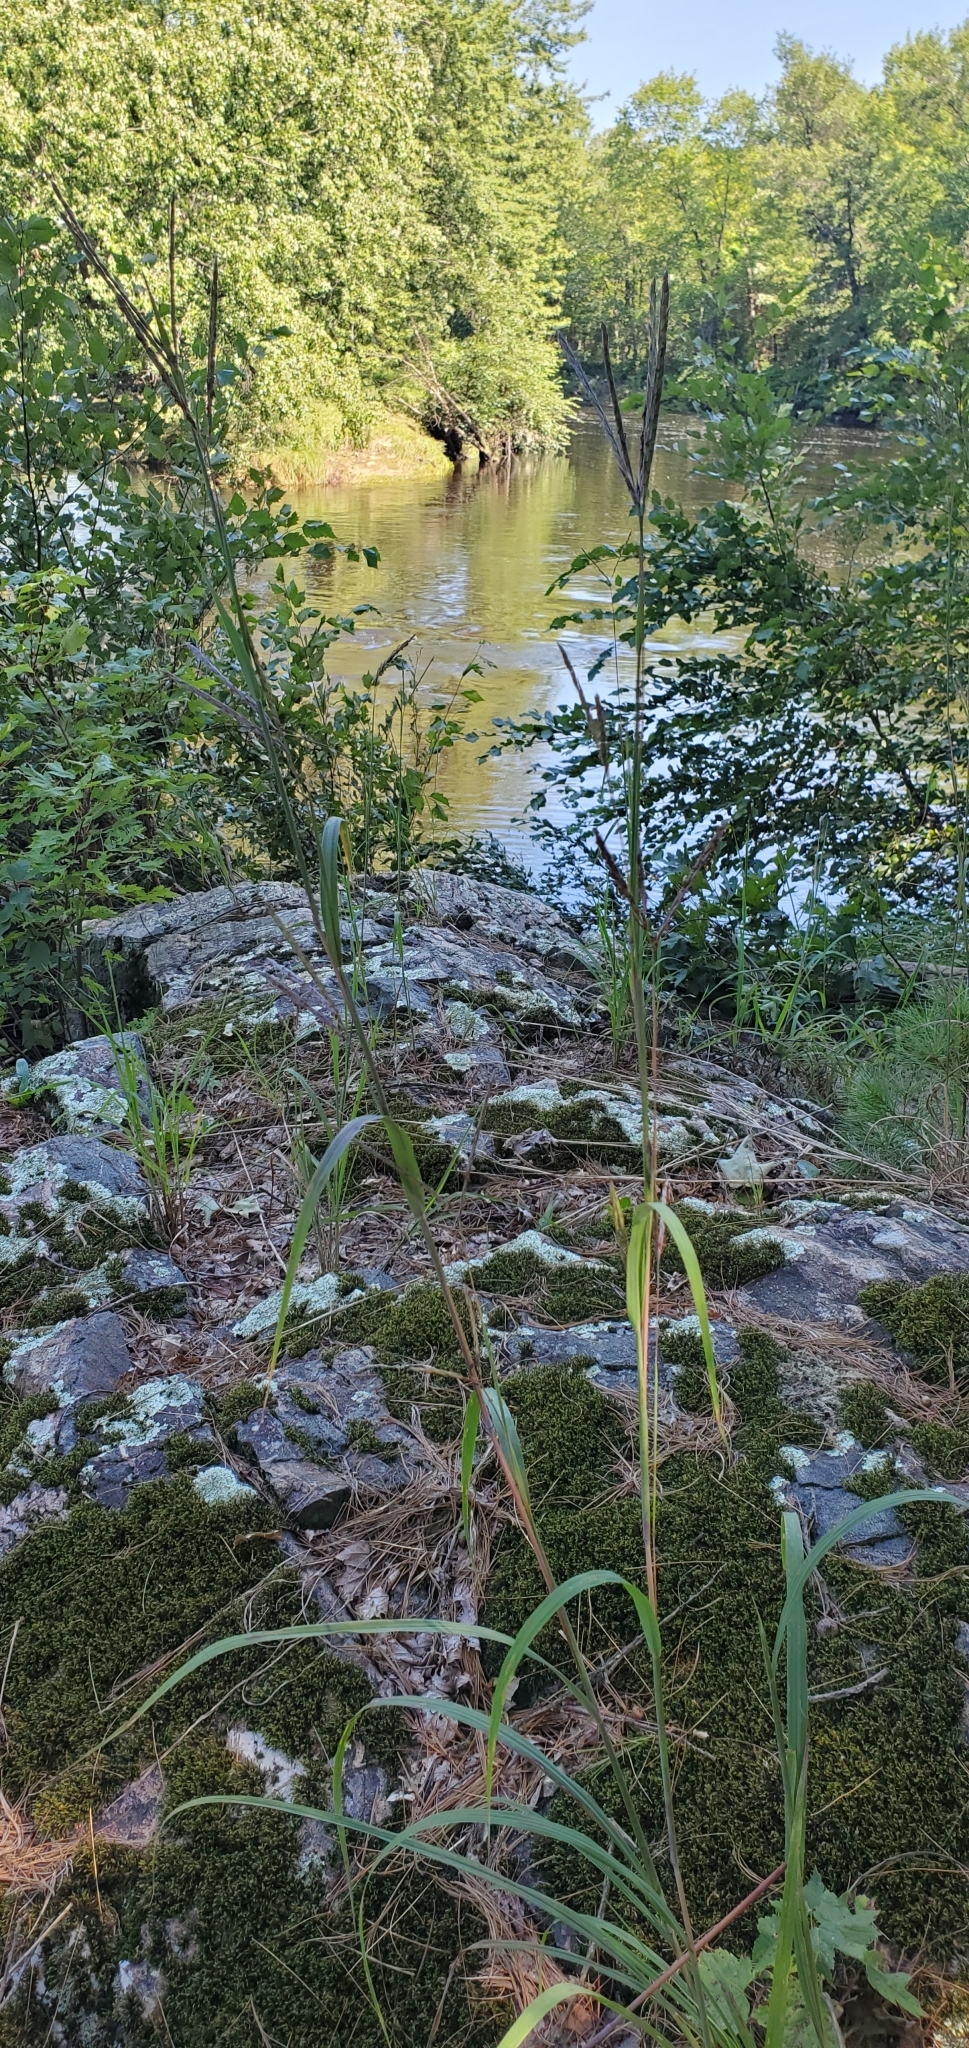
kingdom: Plantae
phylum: Tracheophyta
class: Liliopsida
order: Poales
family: Poaceae
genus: Andropogon
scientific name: Andropogon gerardi
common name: Big bluestem
